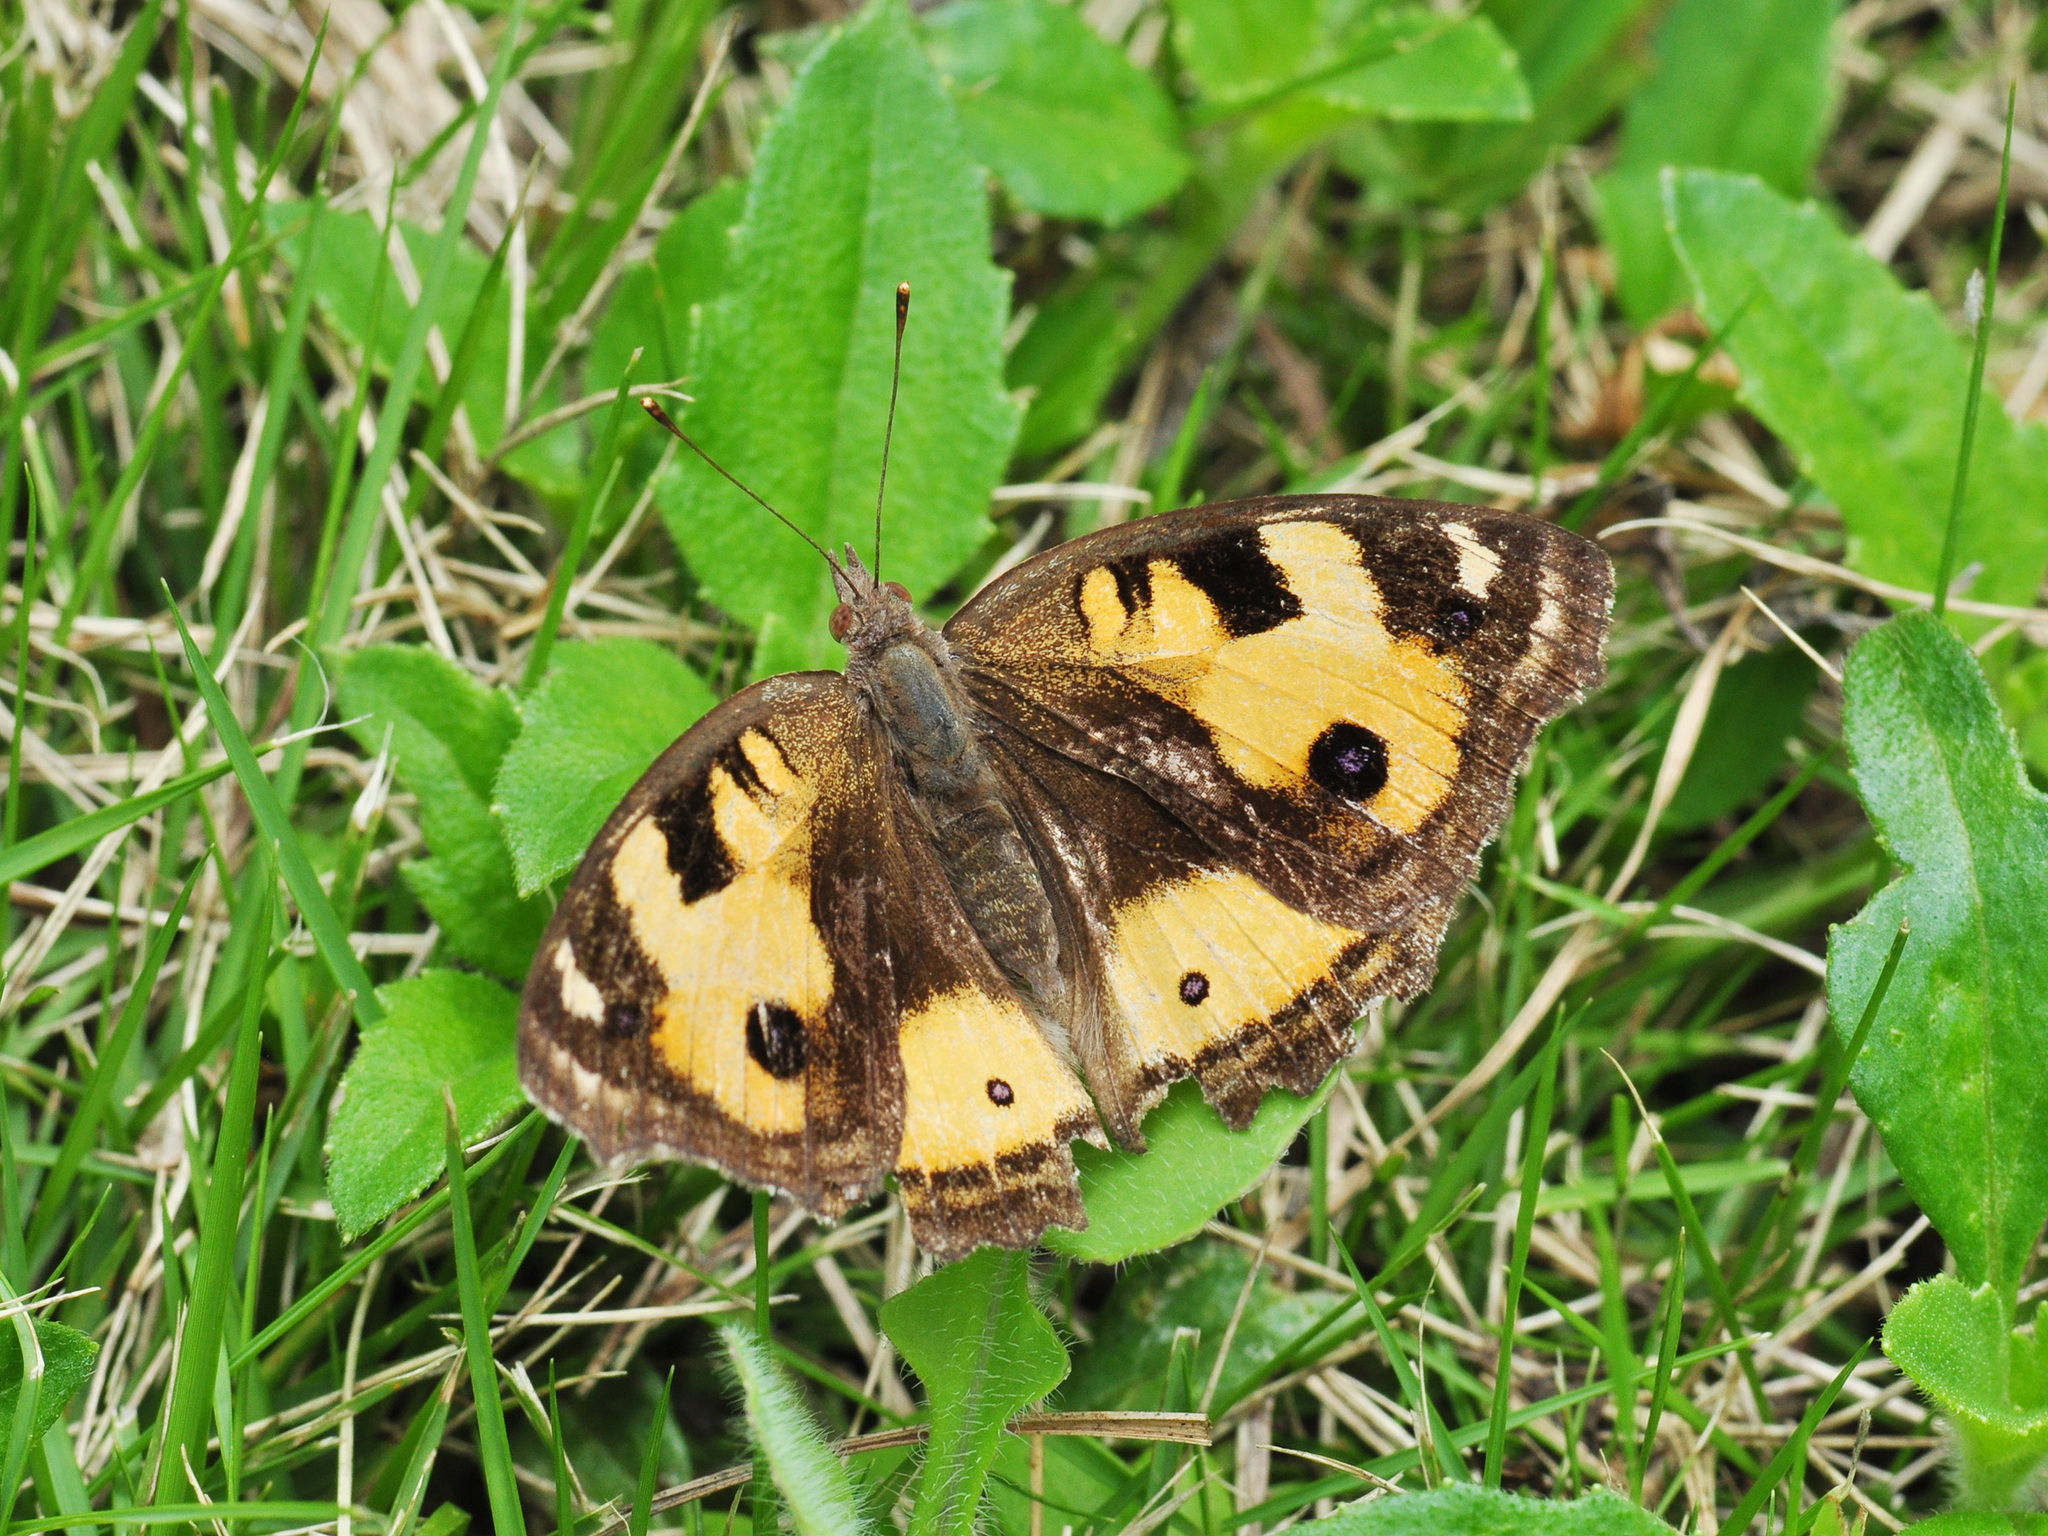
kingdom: Animalia
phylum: Arthropoda
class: Insecta
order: Lepidoptera
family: Nymphalidae
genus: Junonia
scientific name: Junonia hierta
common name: Yellow pansy
